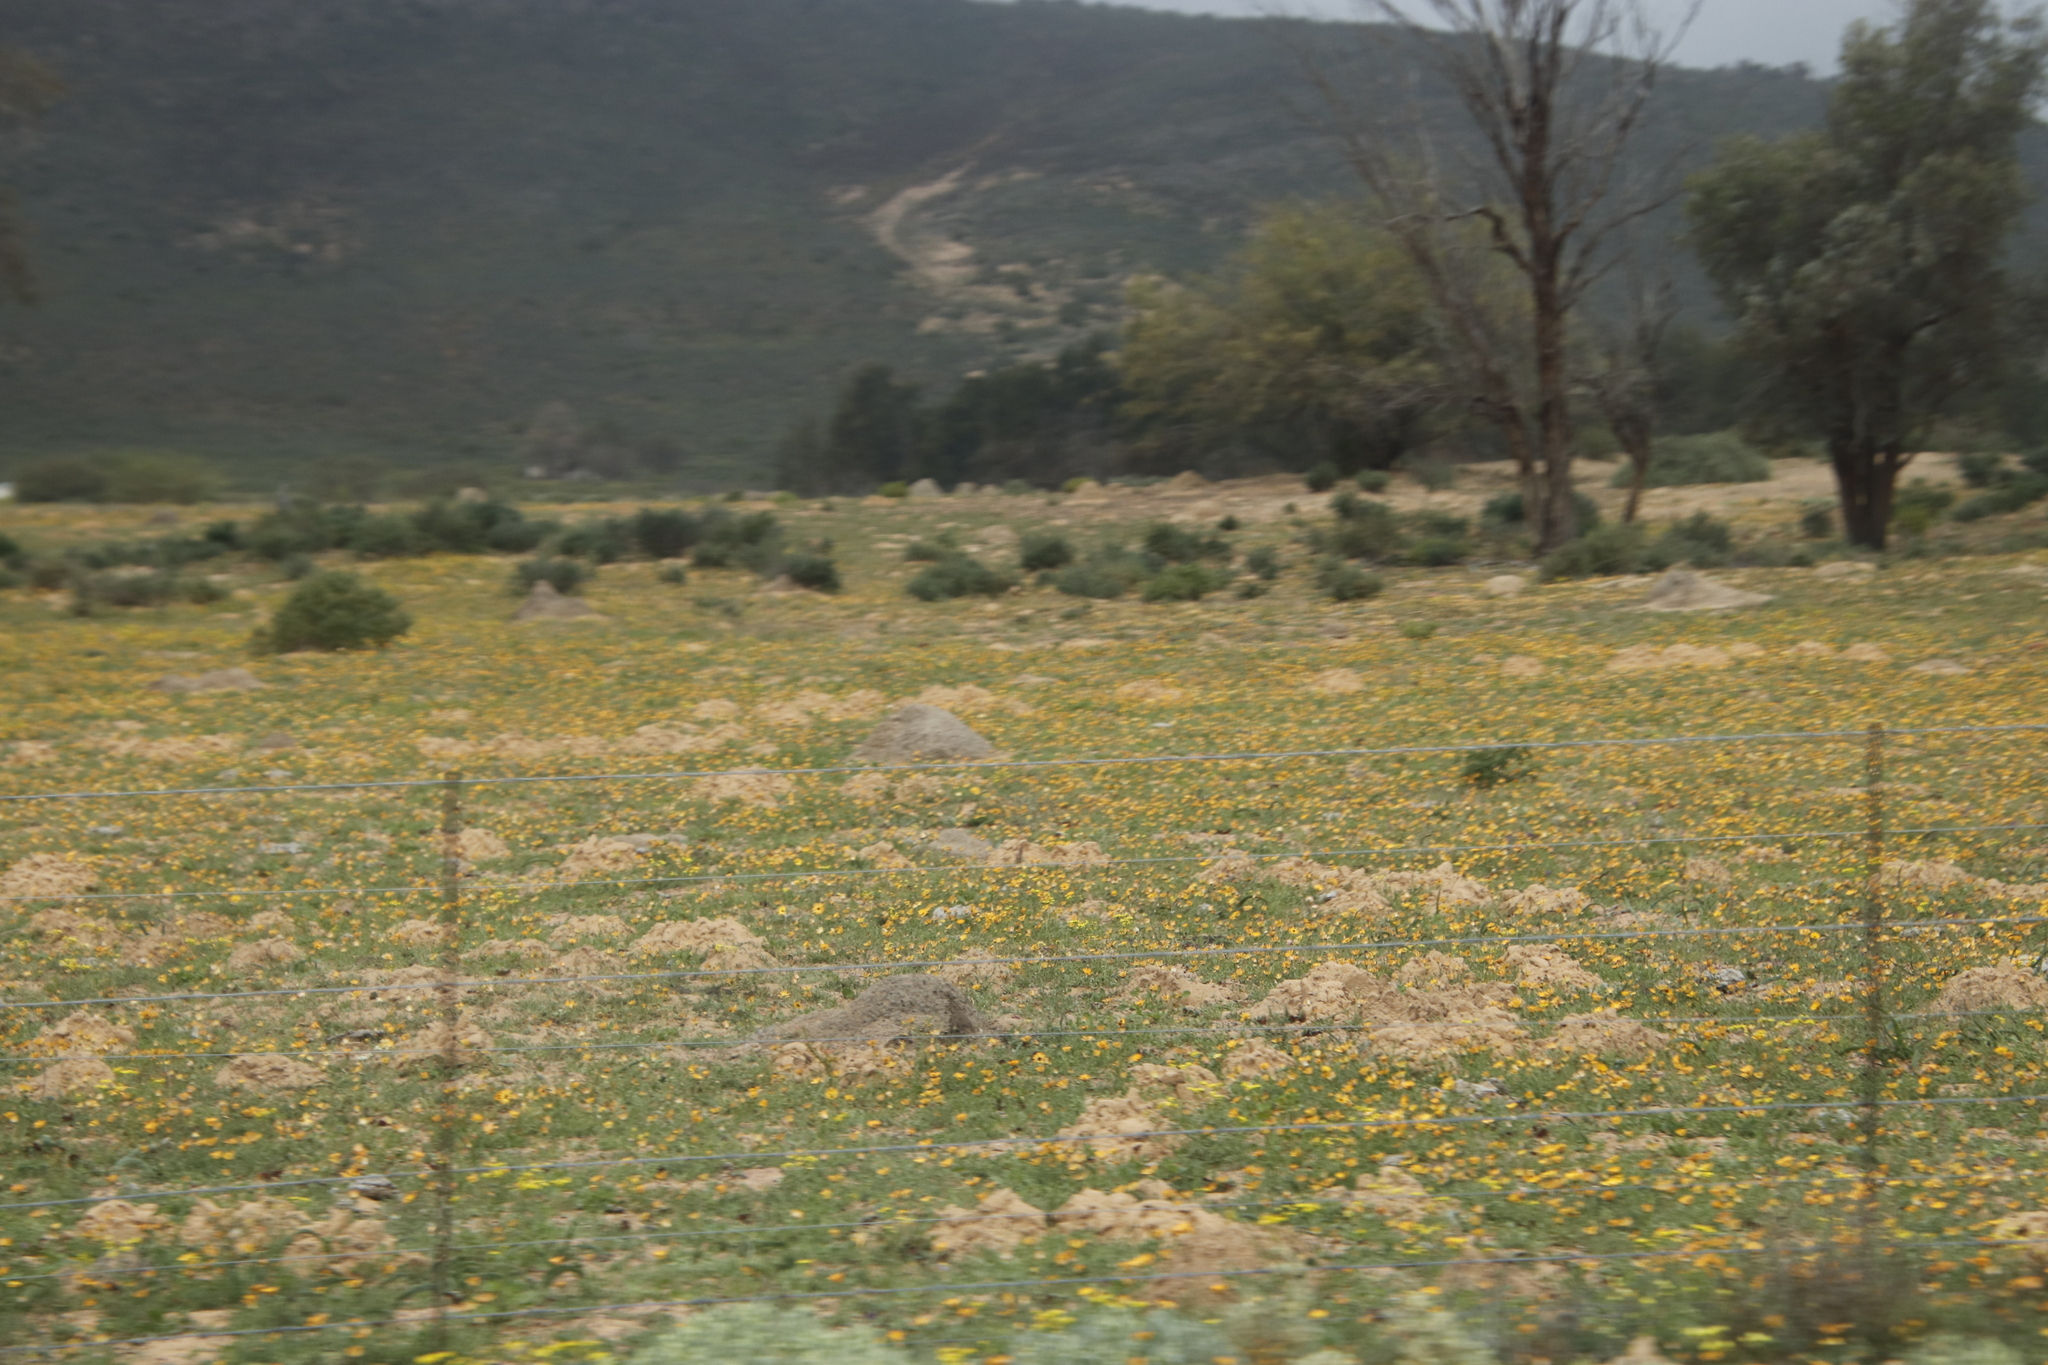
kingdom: Animalia
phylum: Chordata
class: Mammalia
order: Rodentia
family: Bathyergidae
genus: Bathyergus
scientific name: Bathyergus suillus
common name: Cape dune mole rat
